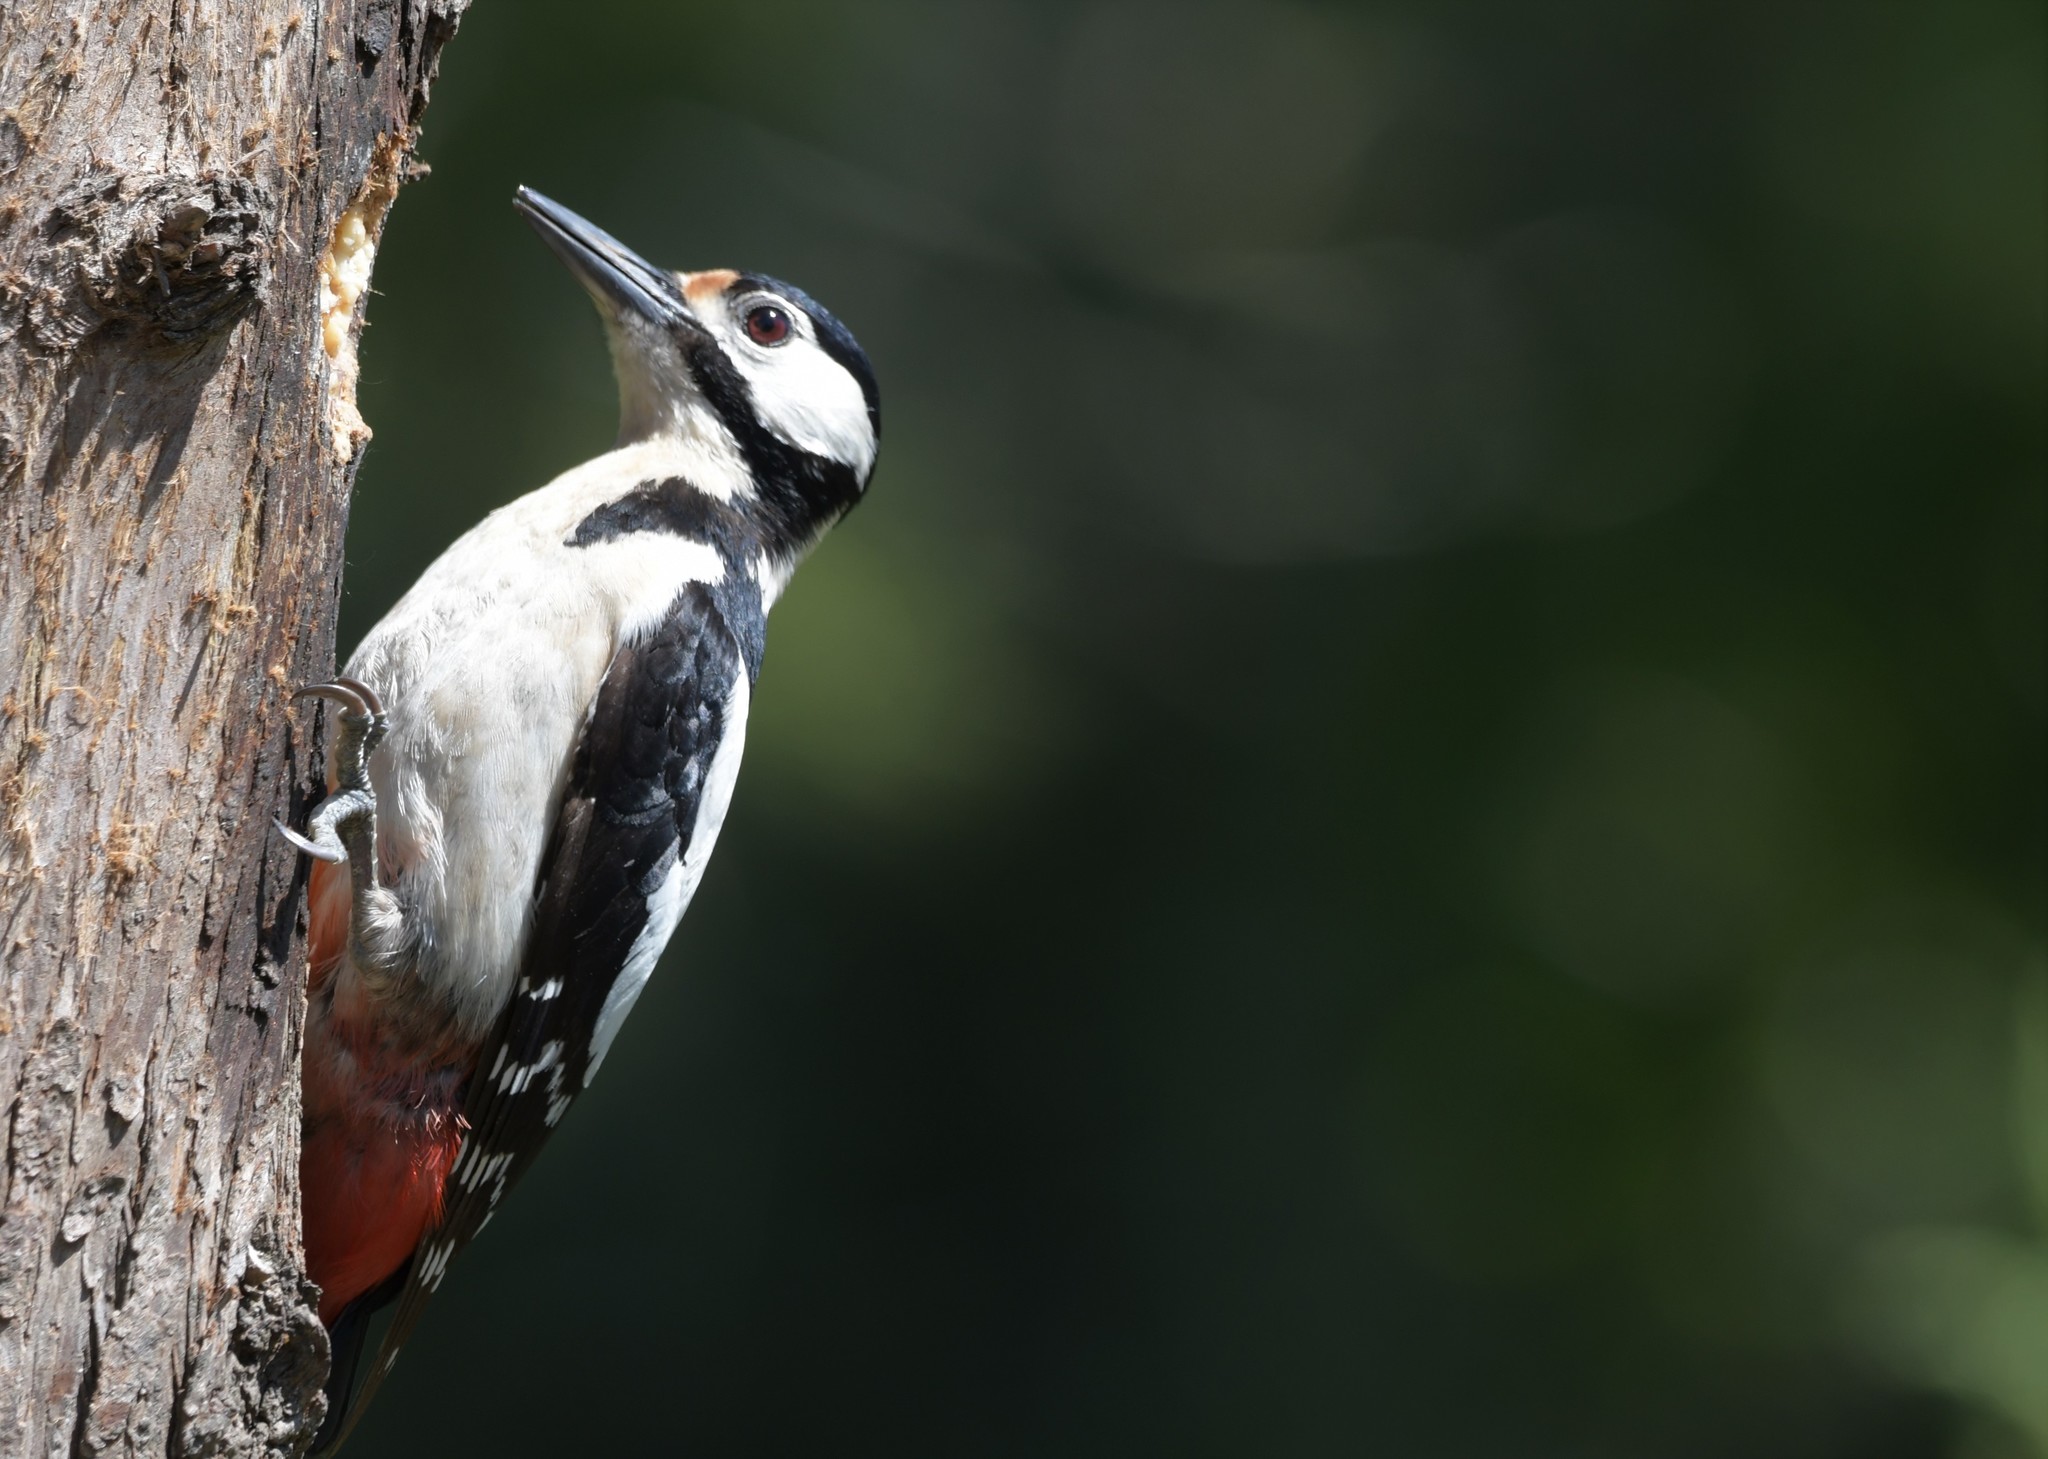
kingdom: Animalia
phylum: Chordata
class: Aves
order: Piciformes
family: Picidae
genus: Dendrocopos
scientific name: Dendrocopos major
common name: Great spotted woodpecker
